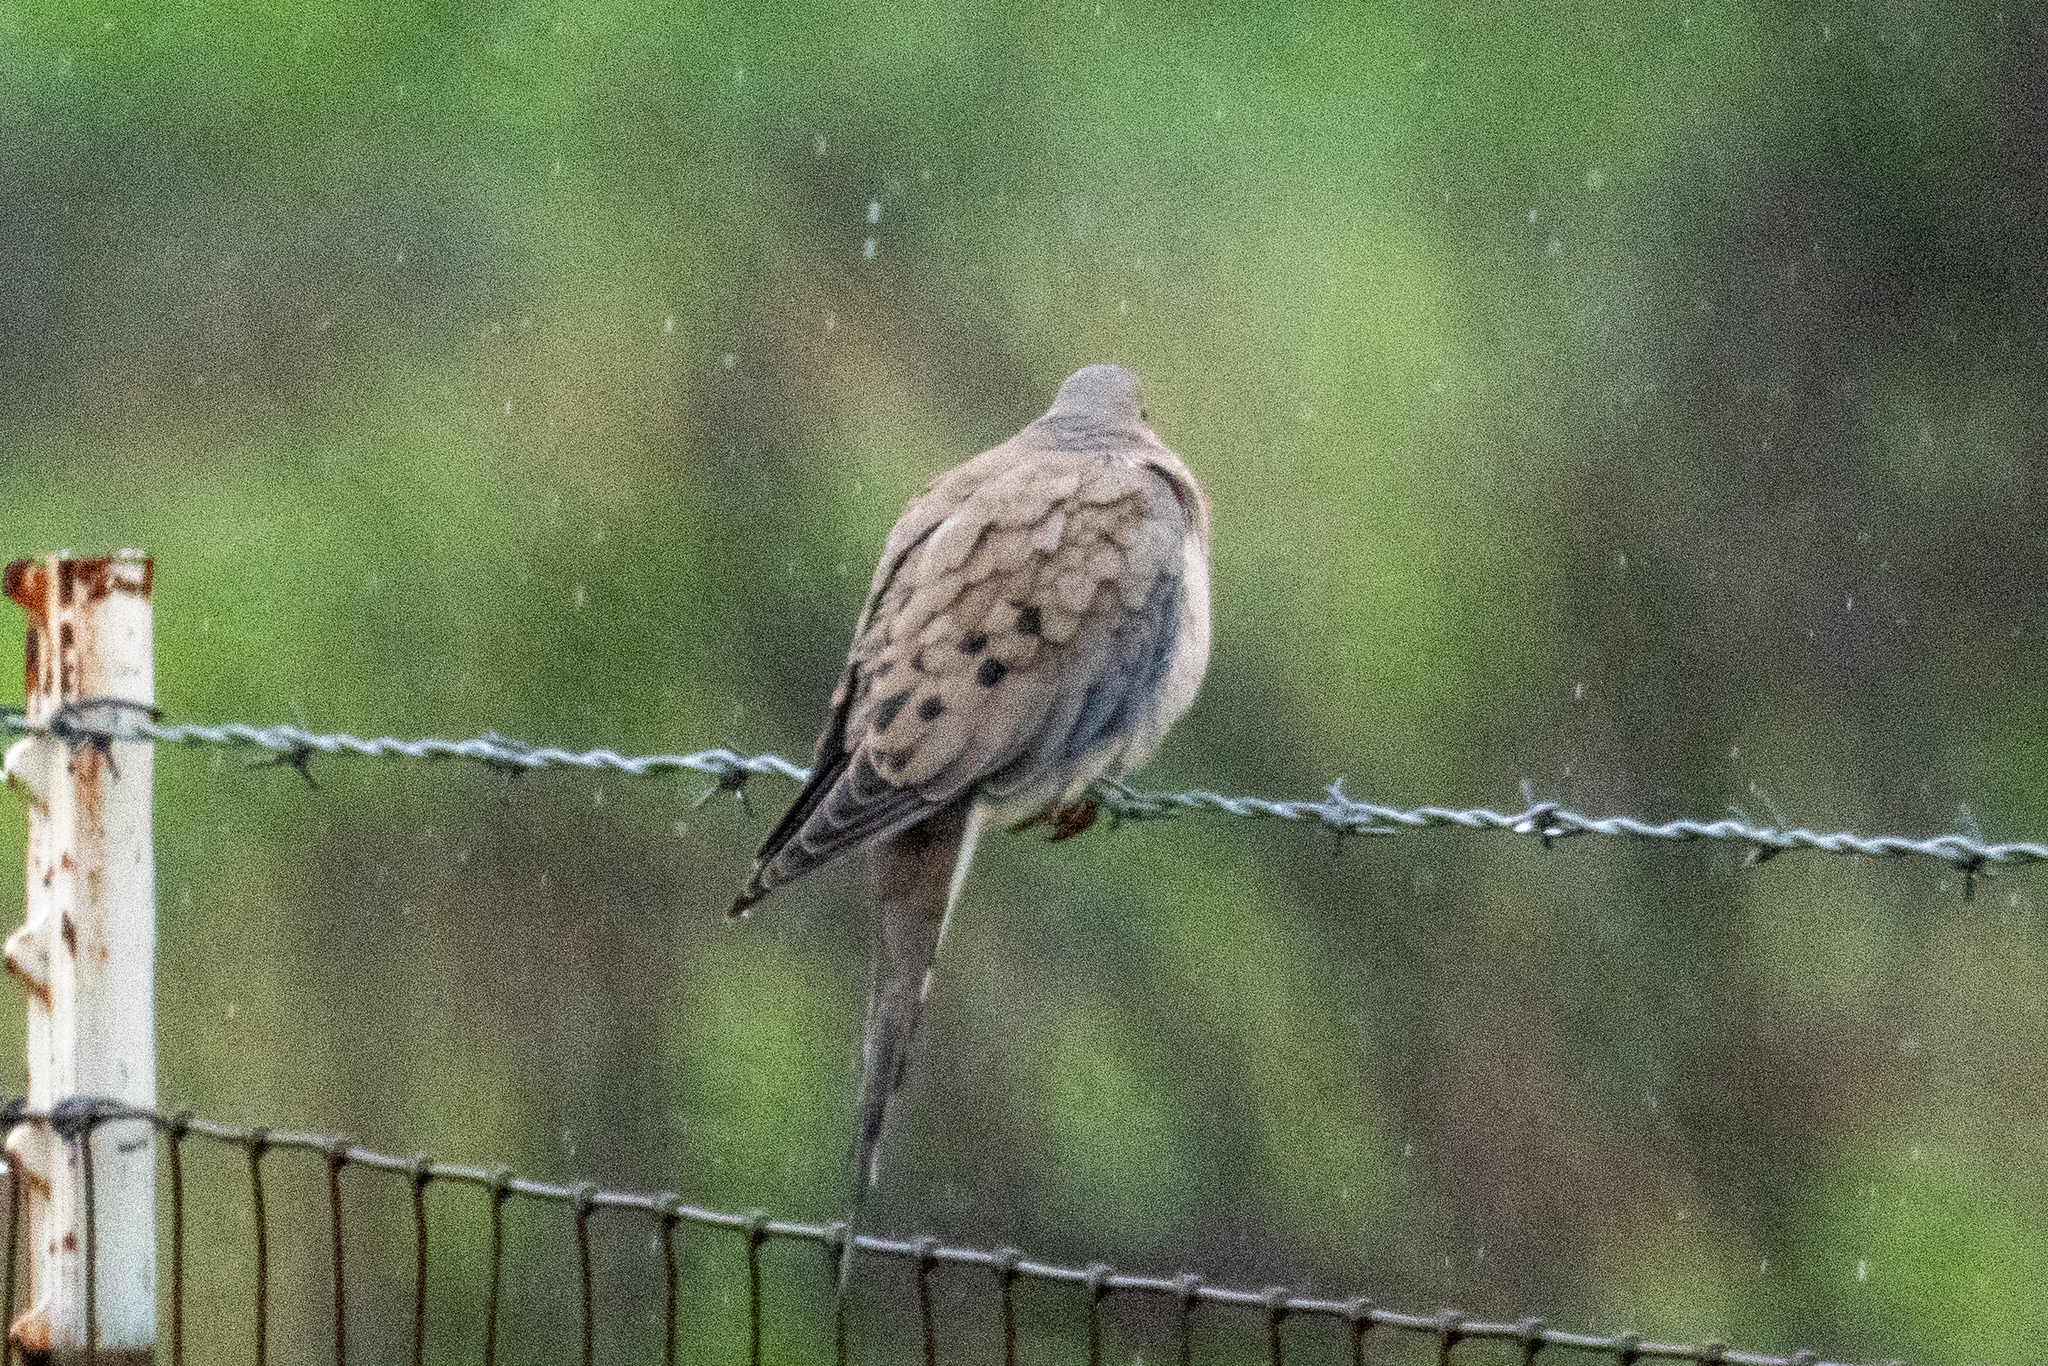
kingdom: Animalia
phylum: Chordata
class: Aves
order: Columbiformes
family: Columbidae
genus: Zenaida
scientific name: Zenaida macroura
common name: Mourning dove
